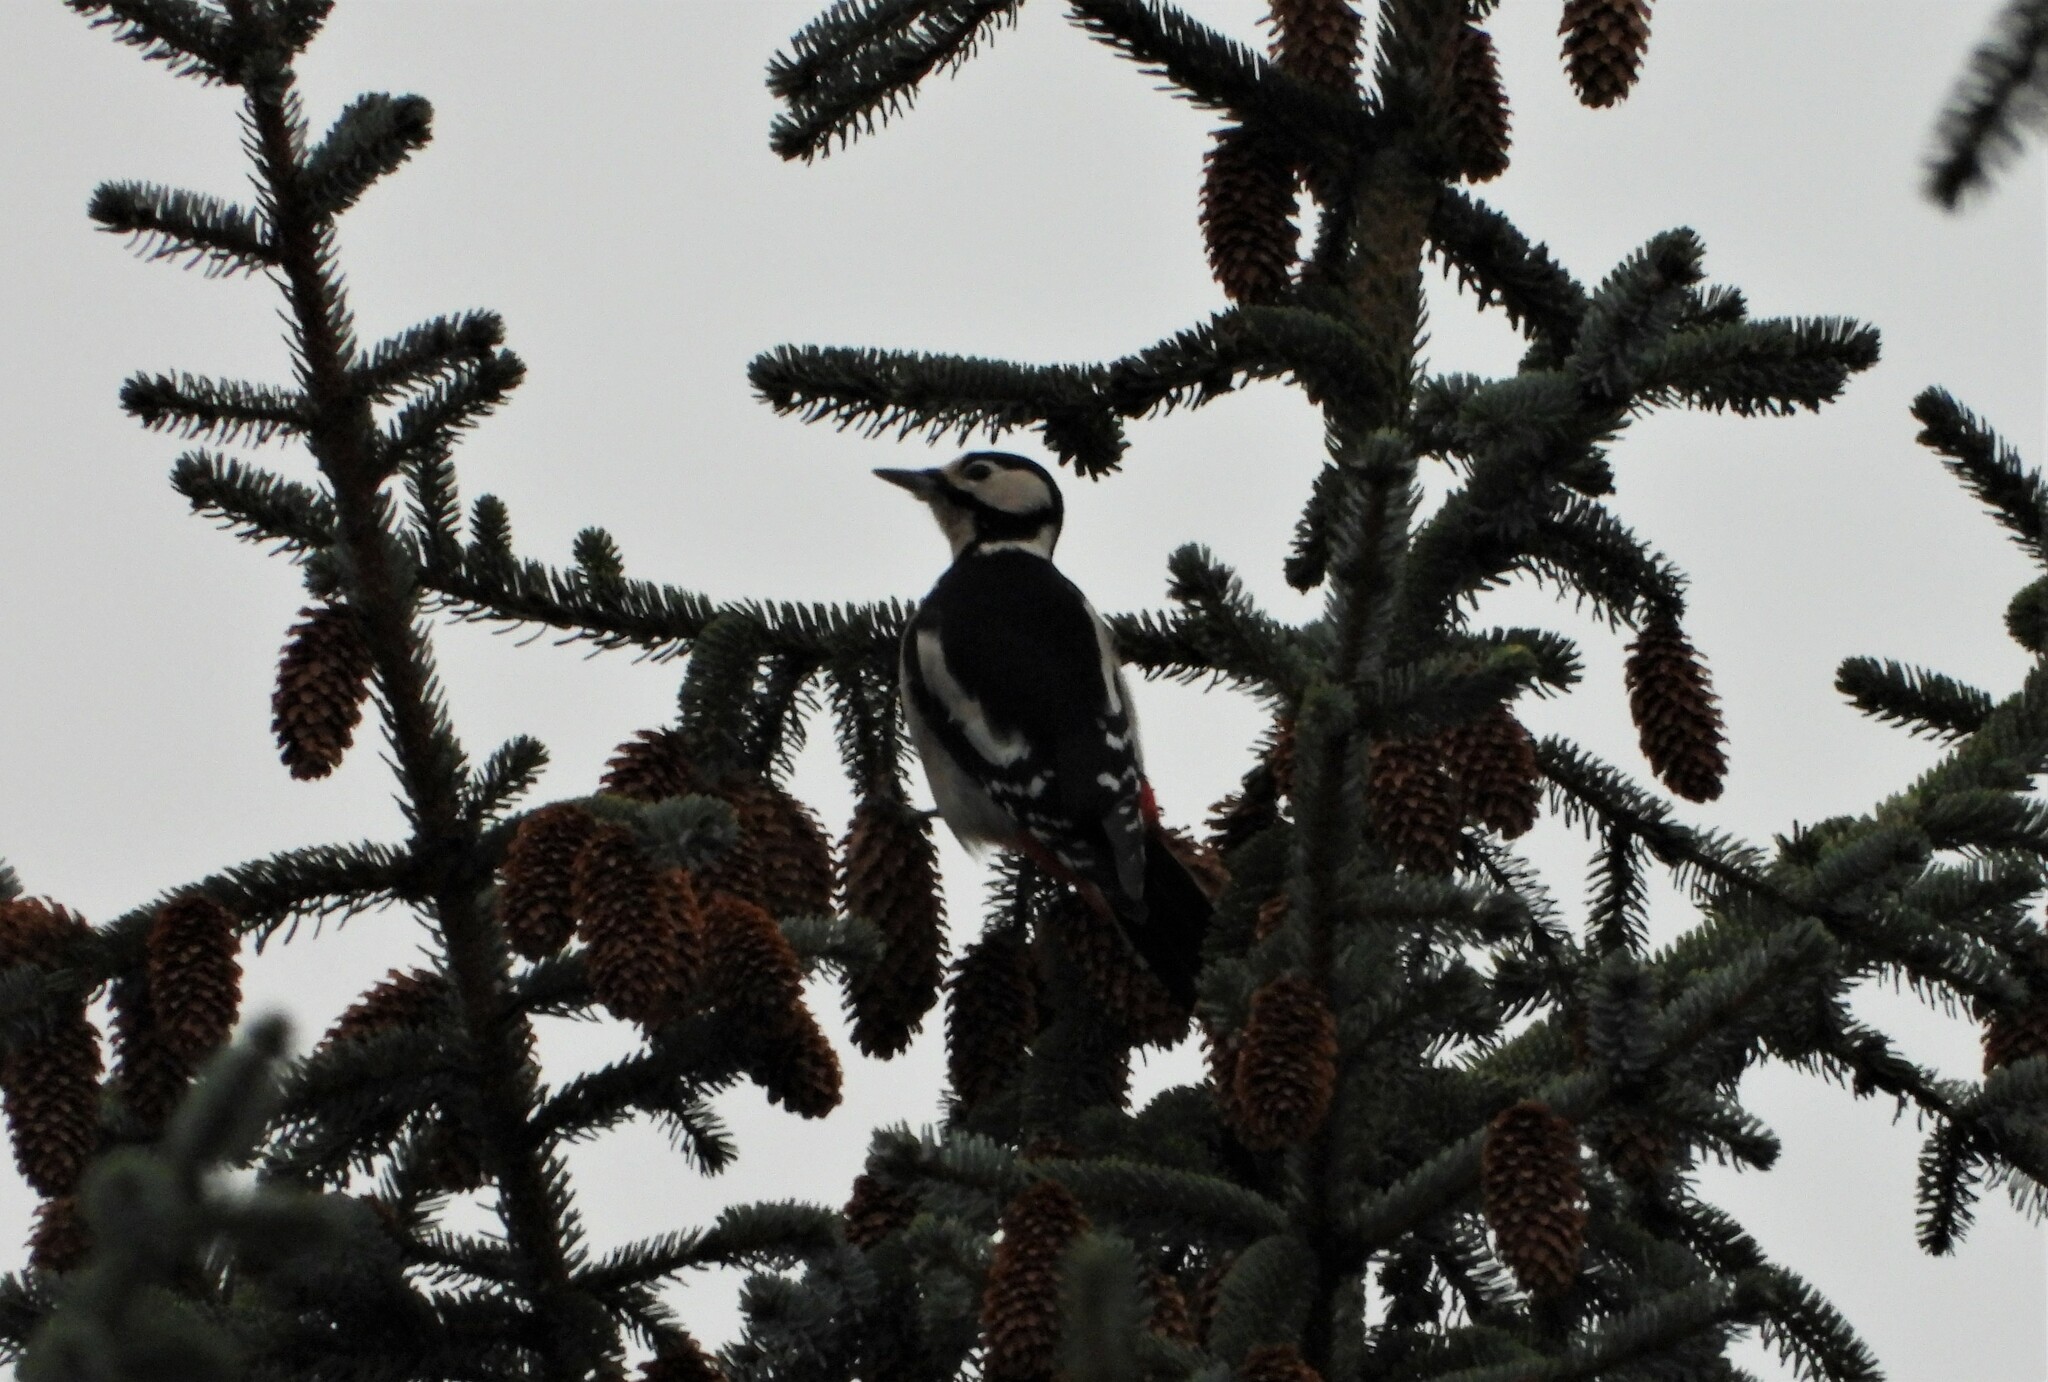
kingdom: Animalia
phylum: Chordata
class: Aves
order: Piciformes
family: Picidae
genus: Dendrocopos
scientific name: Dendrocopos major
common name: Great spotted woodpecker
